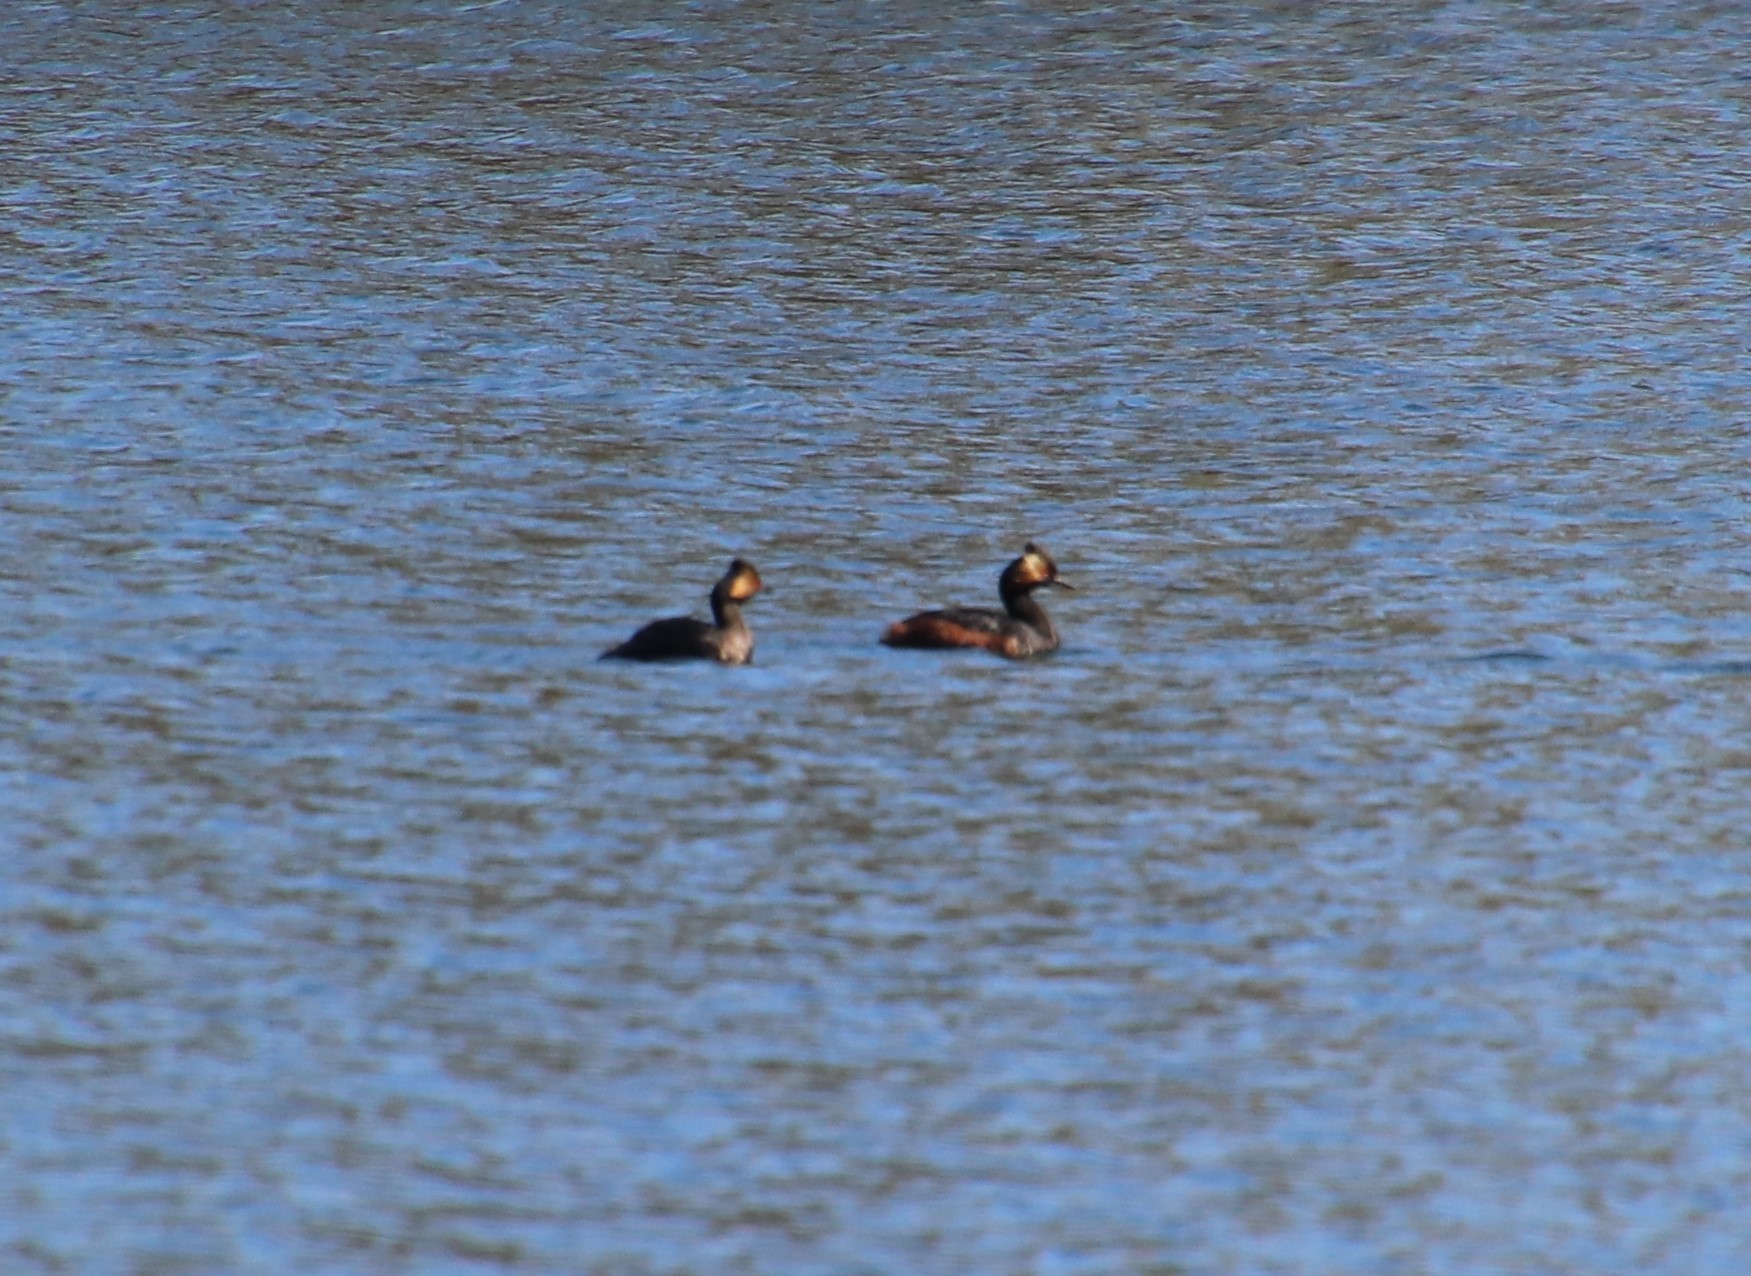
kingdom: Animalia
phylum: Chordata
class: Aves
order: Podicipediformes
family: Podicipedidae
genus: Podiceps
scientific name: Podiceps nigricollis
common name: Black-necked grebe
